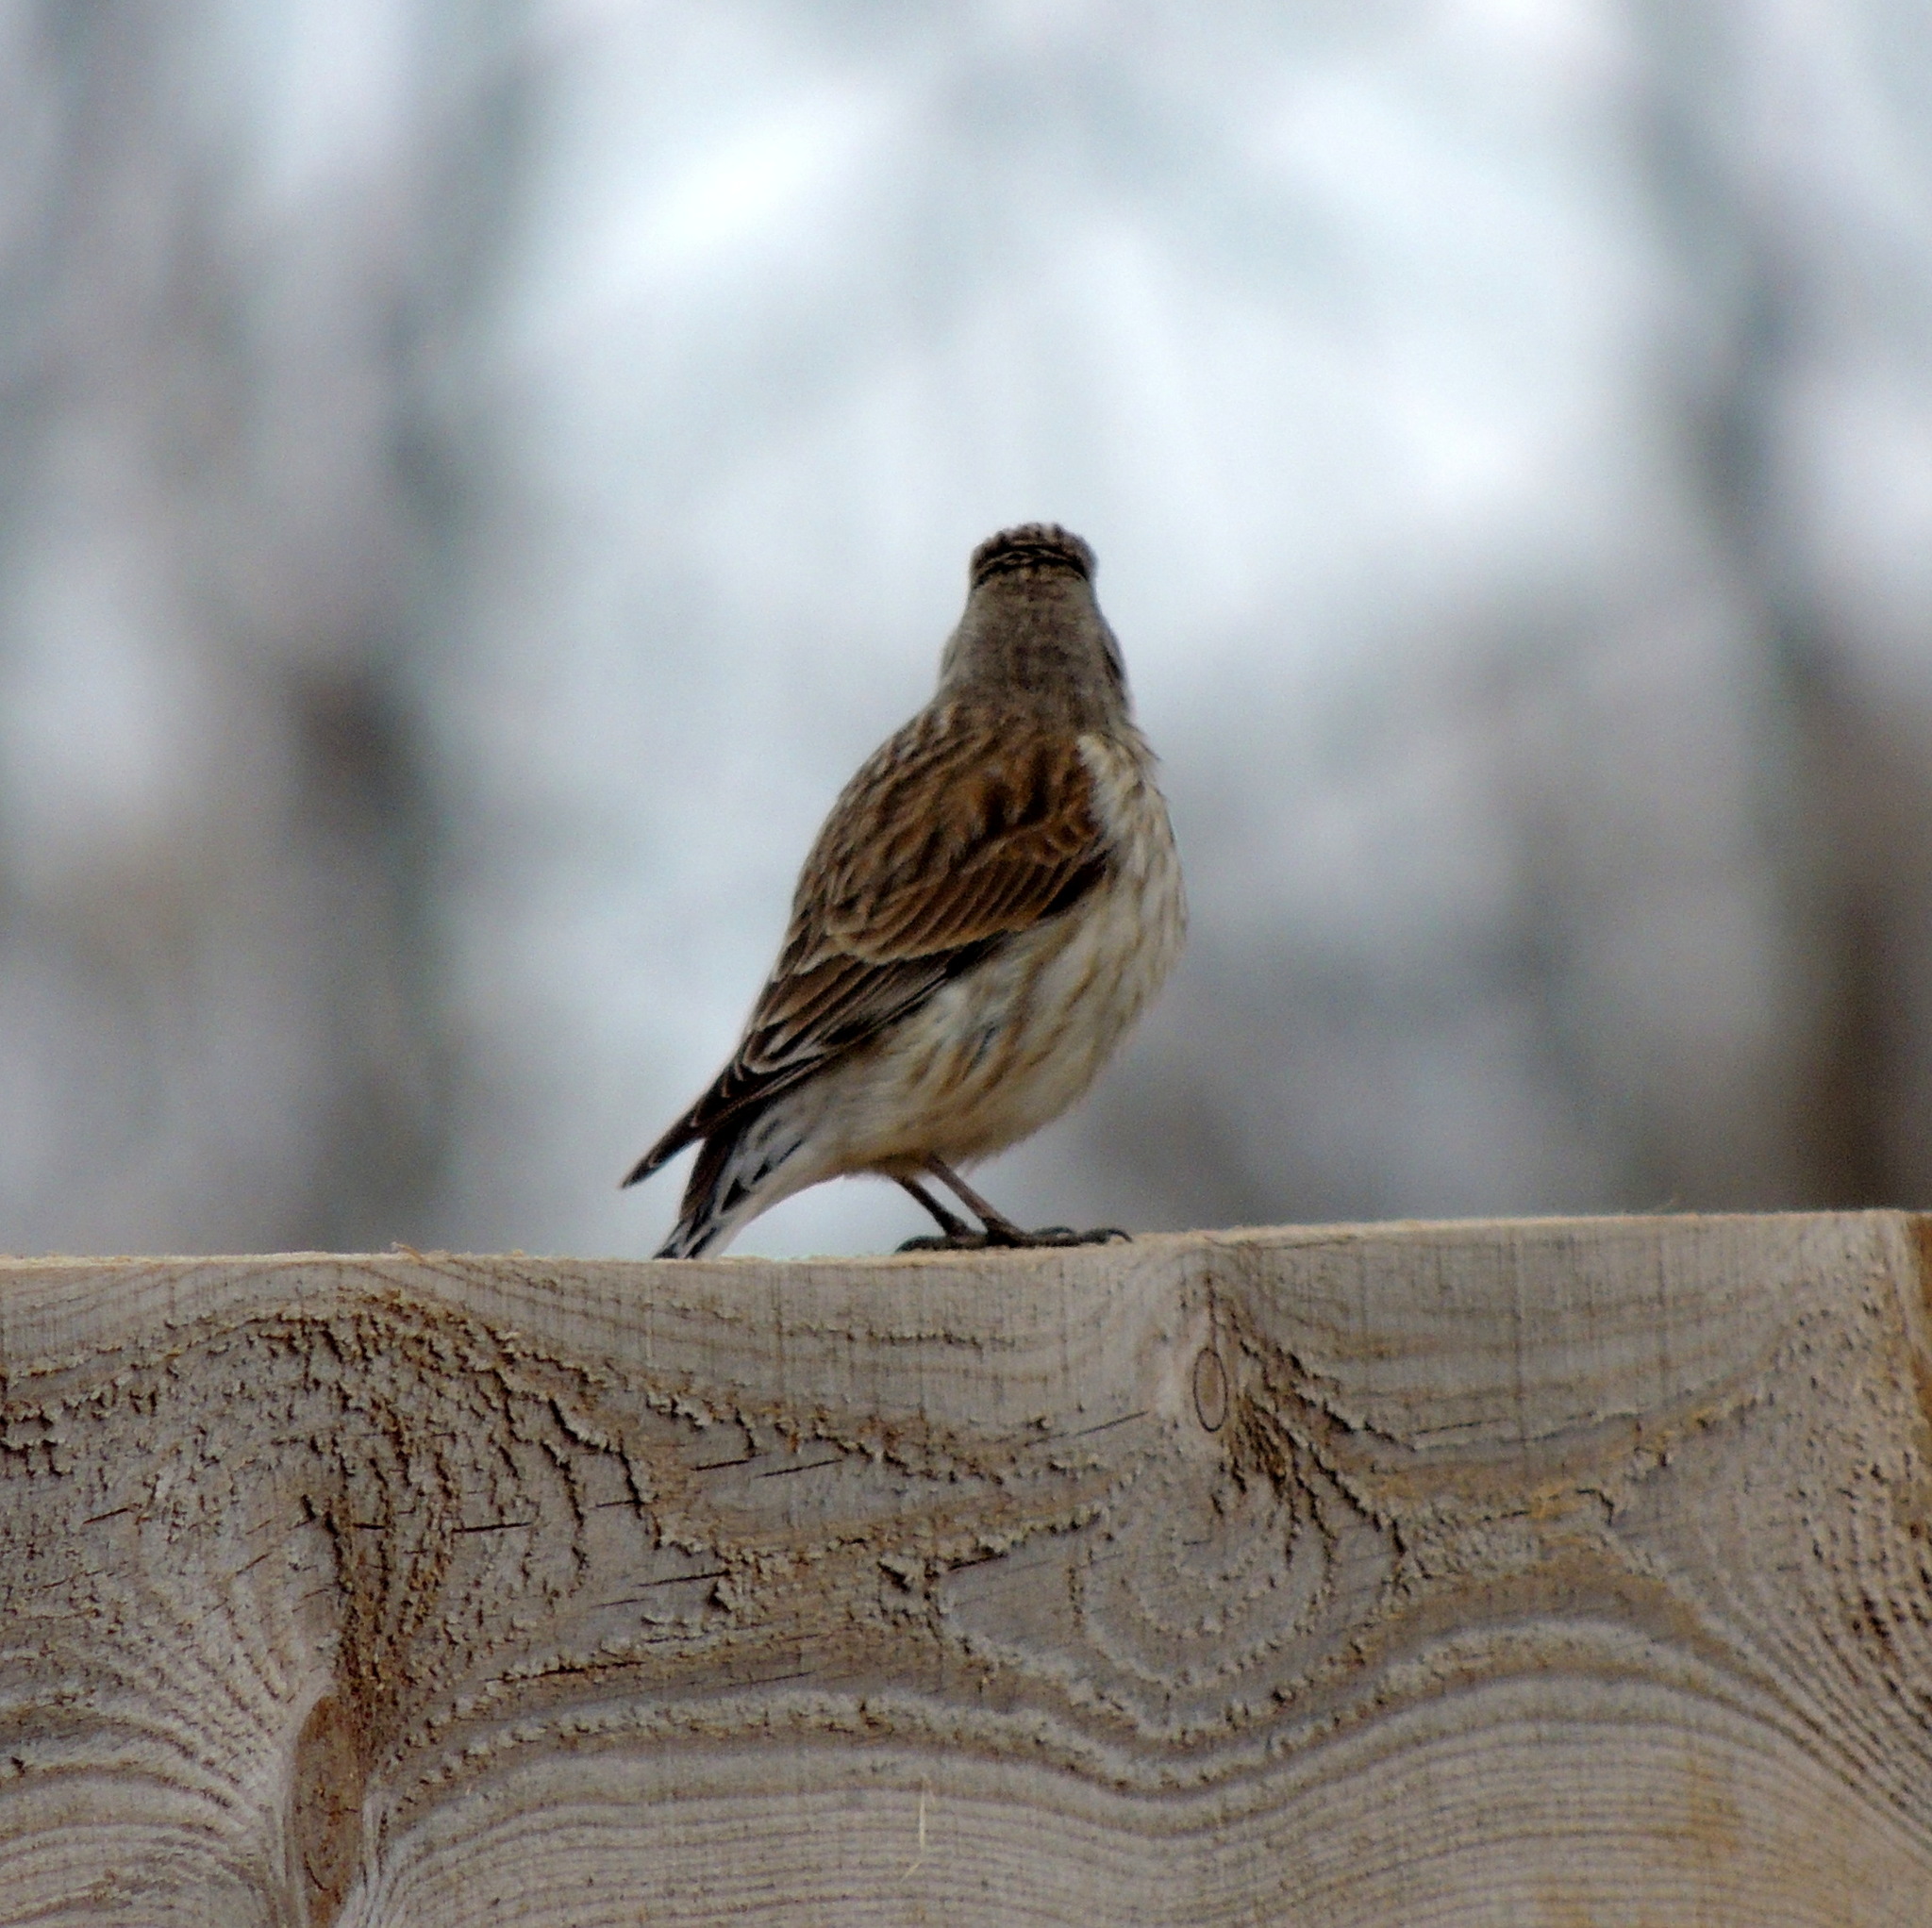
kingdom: Animalia
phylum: Chordata
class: Aves
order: Passeriformes
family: Fringillidae
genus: Linaria
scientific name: Linaria cannabina
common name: Common linnet
